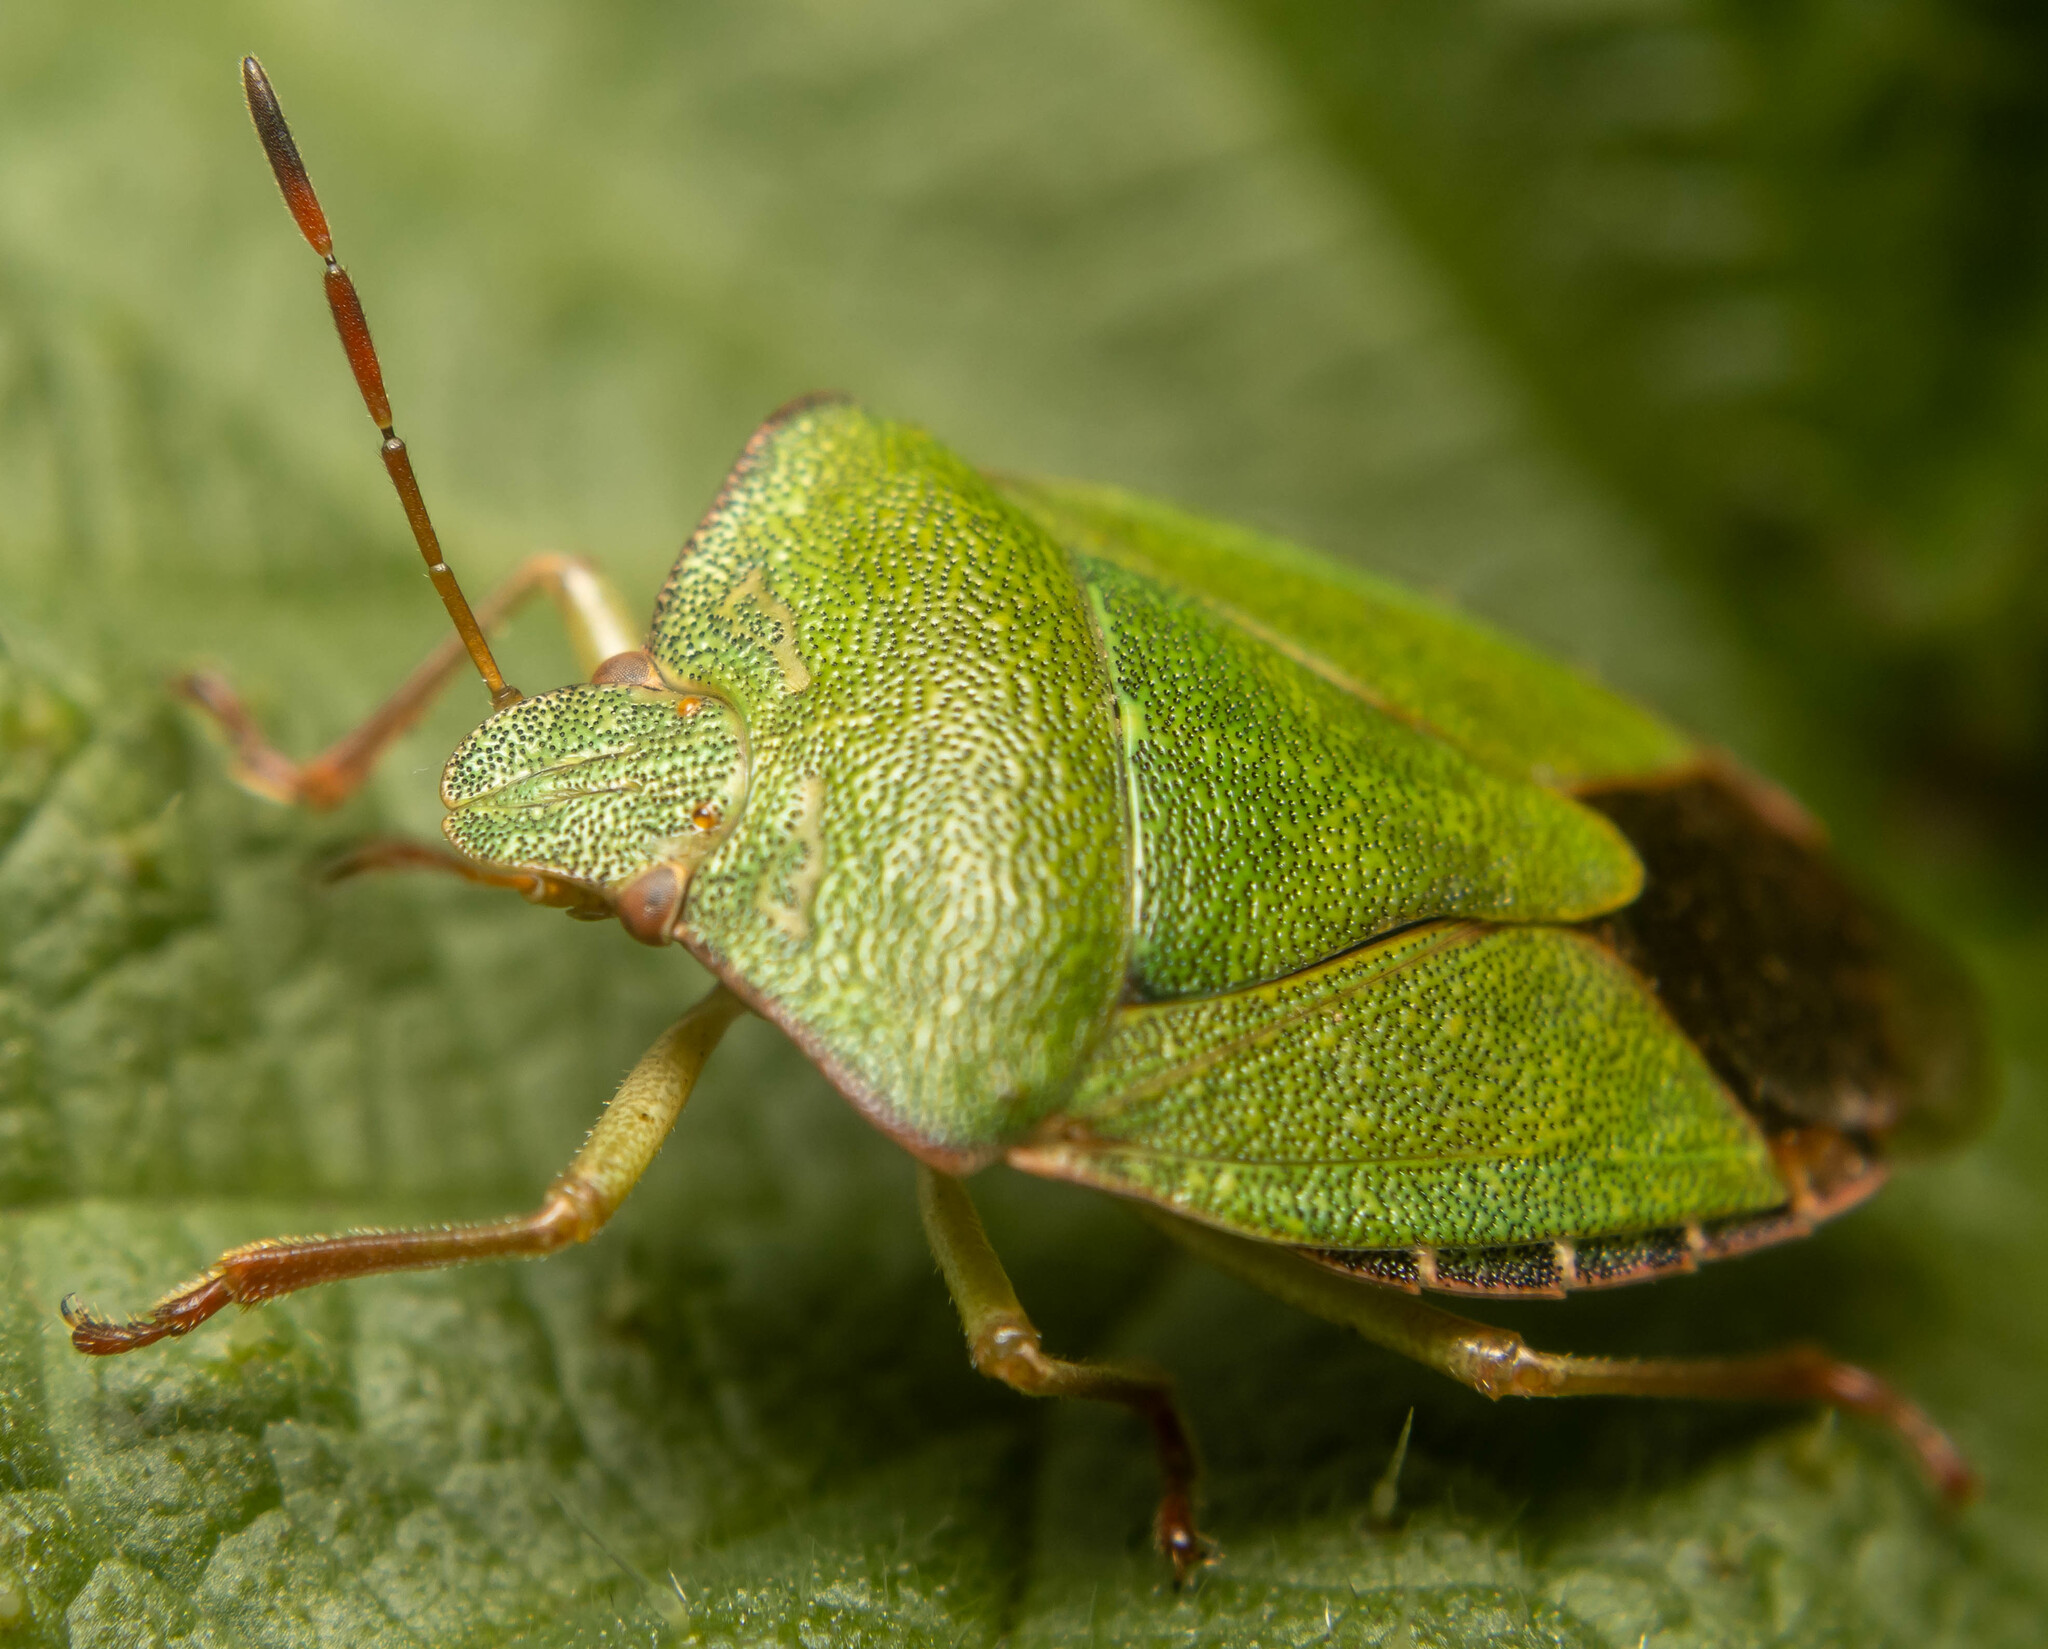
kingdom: Animalia
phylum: Arthropoda
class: Insecta
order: Hemiptera
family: Pentatomidae
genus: Palomena
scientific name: Palomena prasina
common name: Green shieldbug
